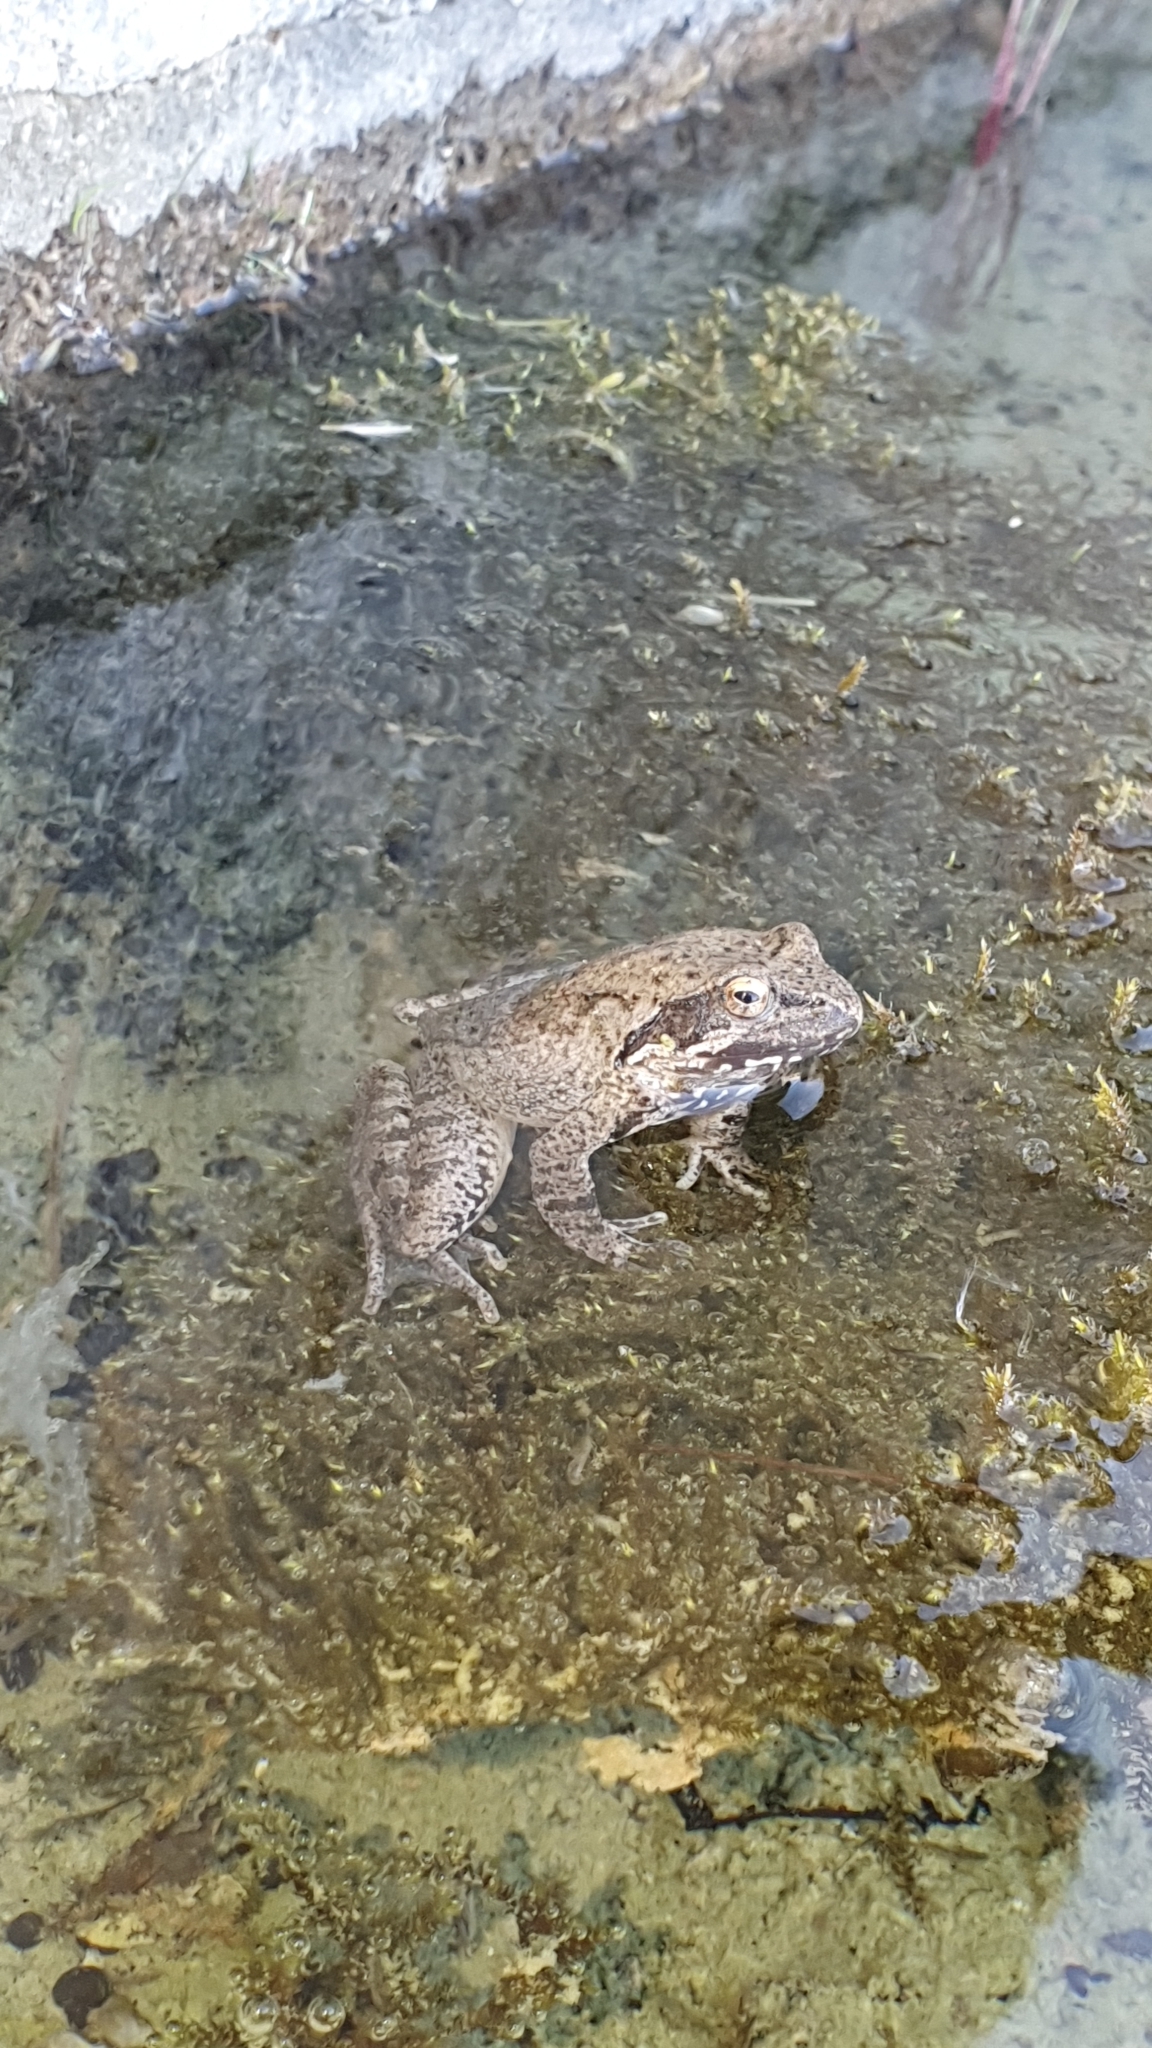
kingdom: Animalia
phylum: Chordata
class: Amphibia
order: Anura
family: Ranidae
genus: Rana
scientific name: Rana italica
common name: Italian stream frog
